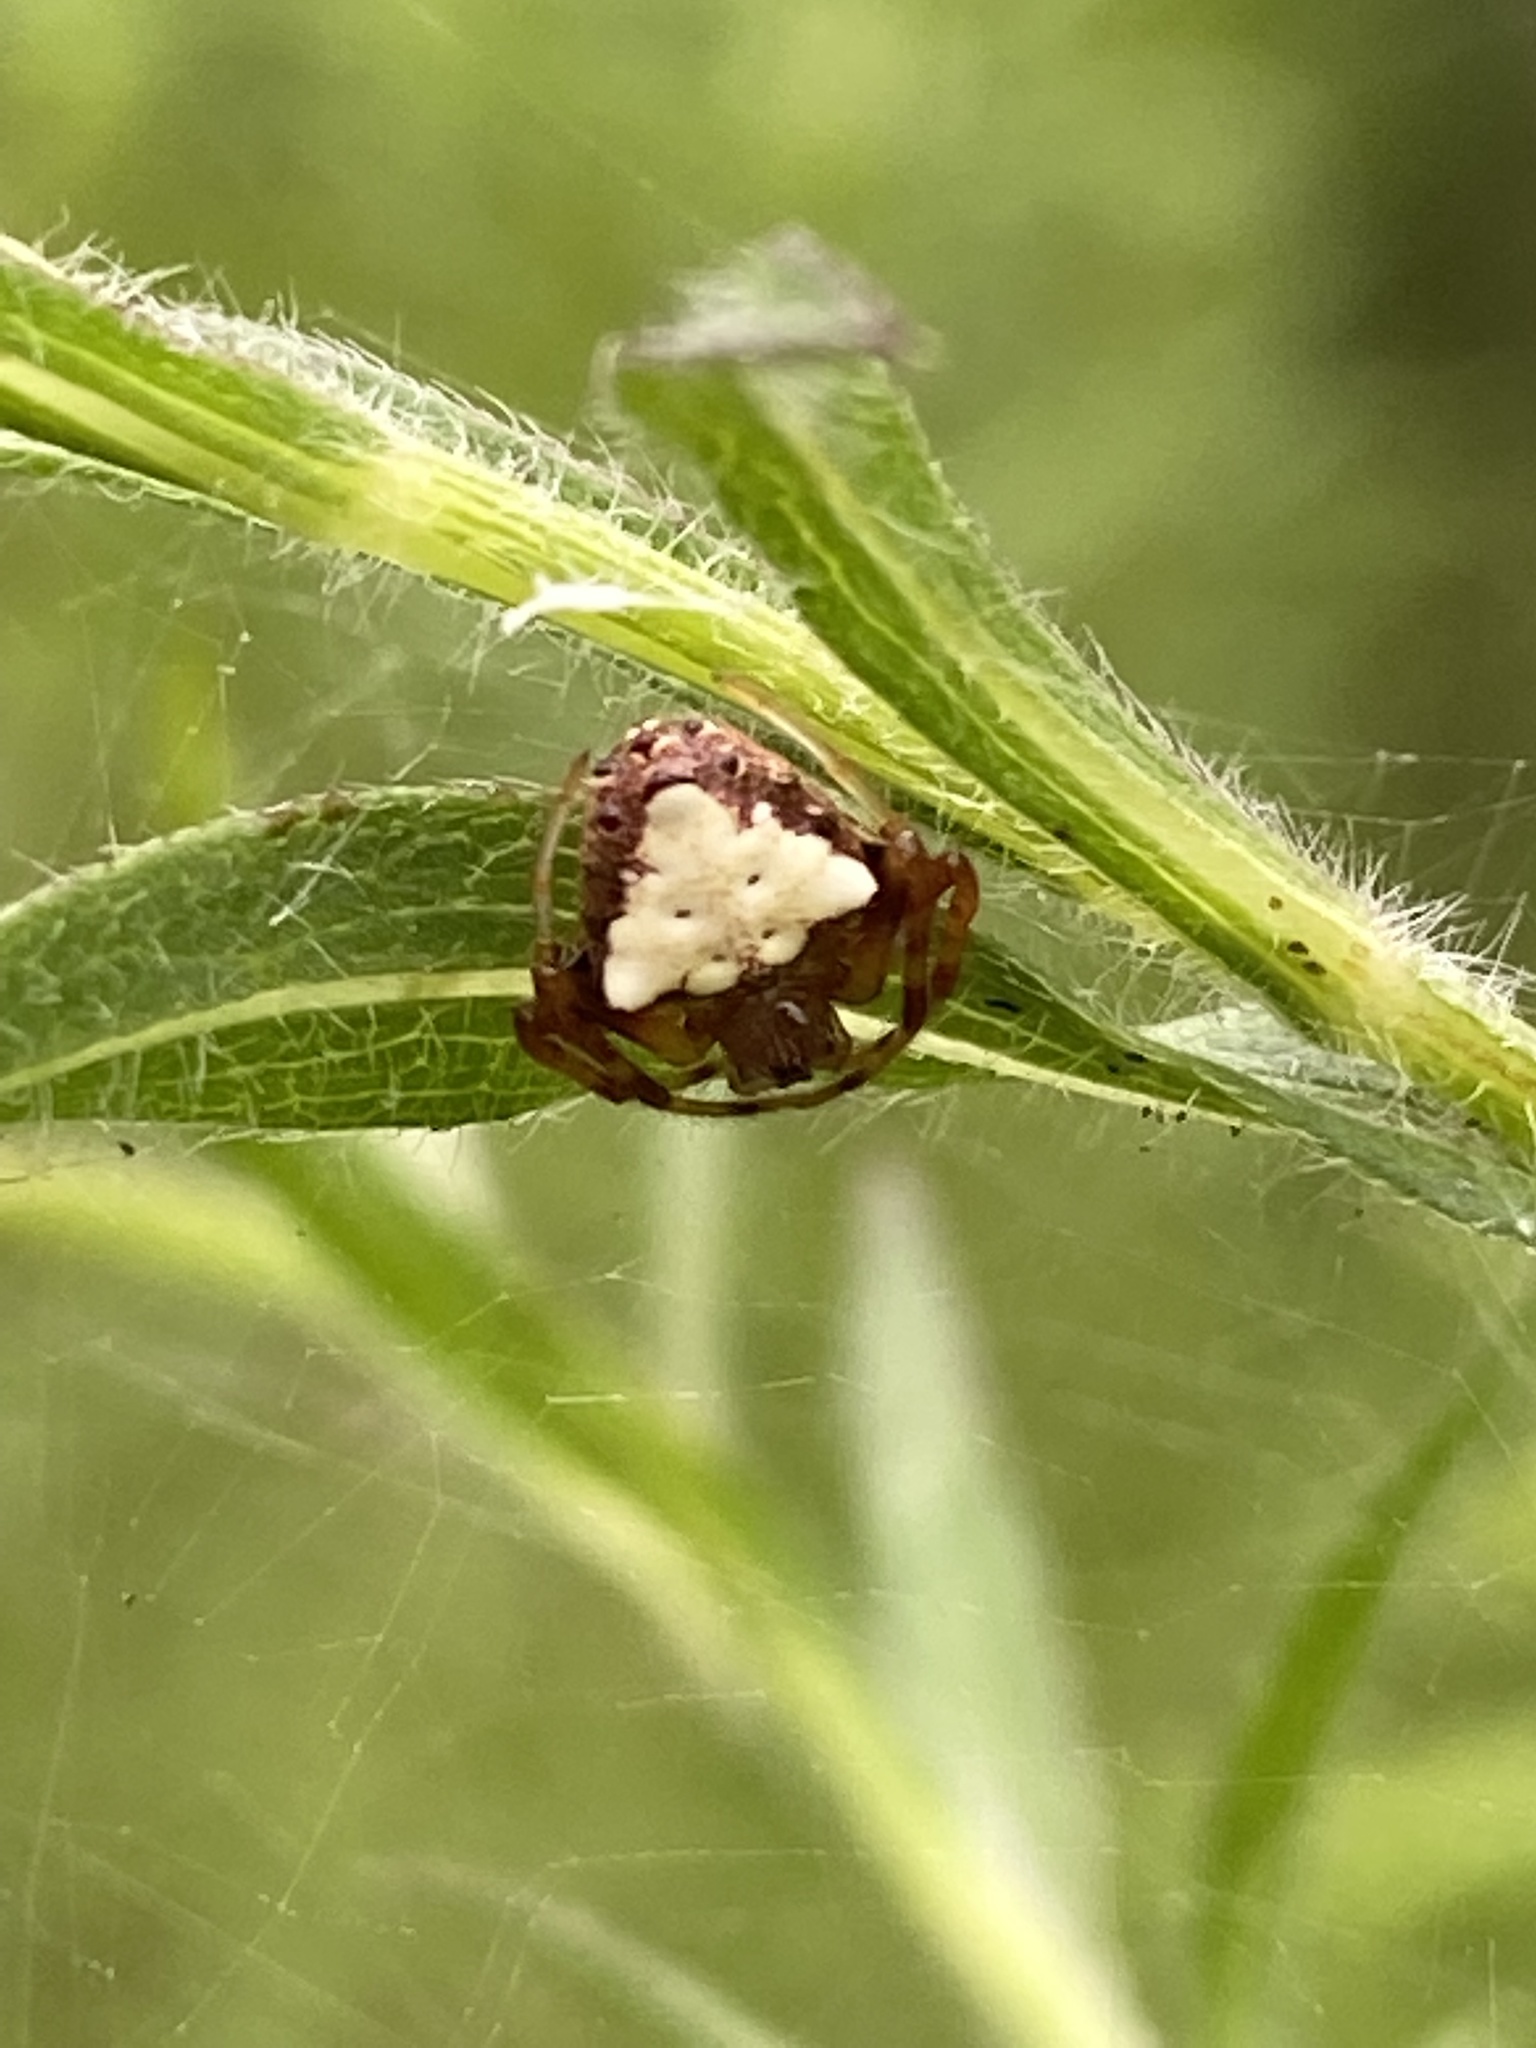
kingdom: Animalia
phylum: Arthropoda
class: Arachnida
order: Araneae
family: Araneidae
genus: Verrucosa
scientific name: Verrucosa arenata
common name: Orb weavers
